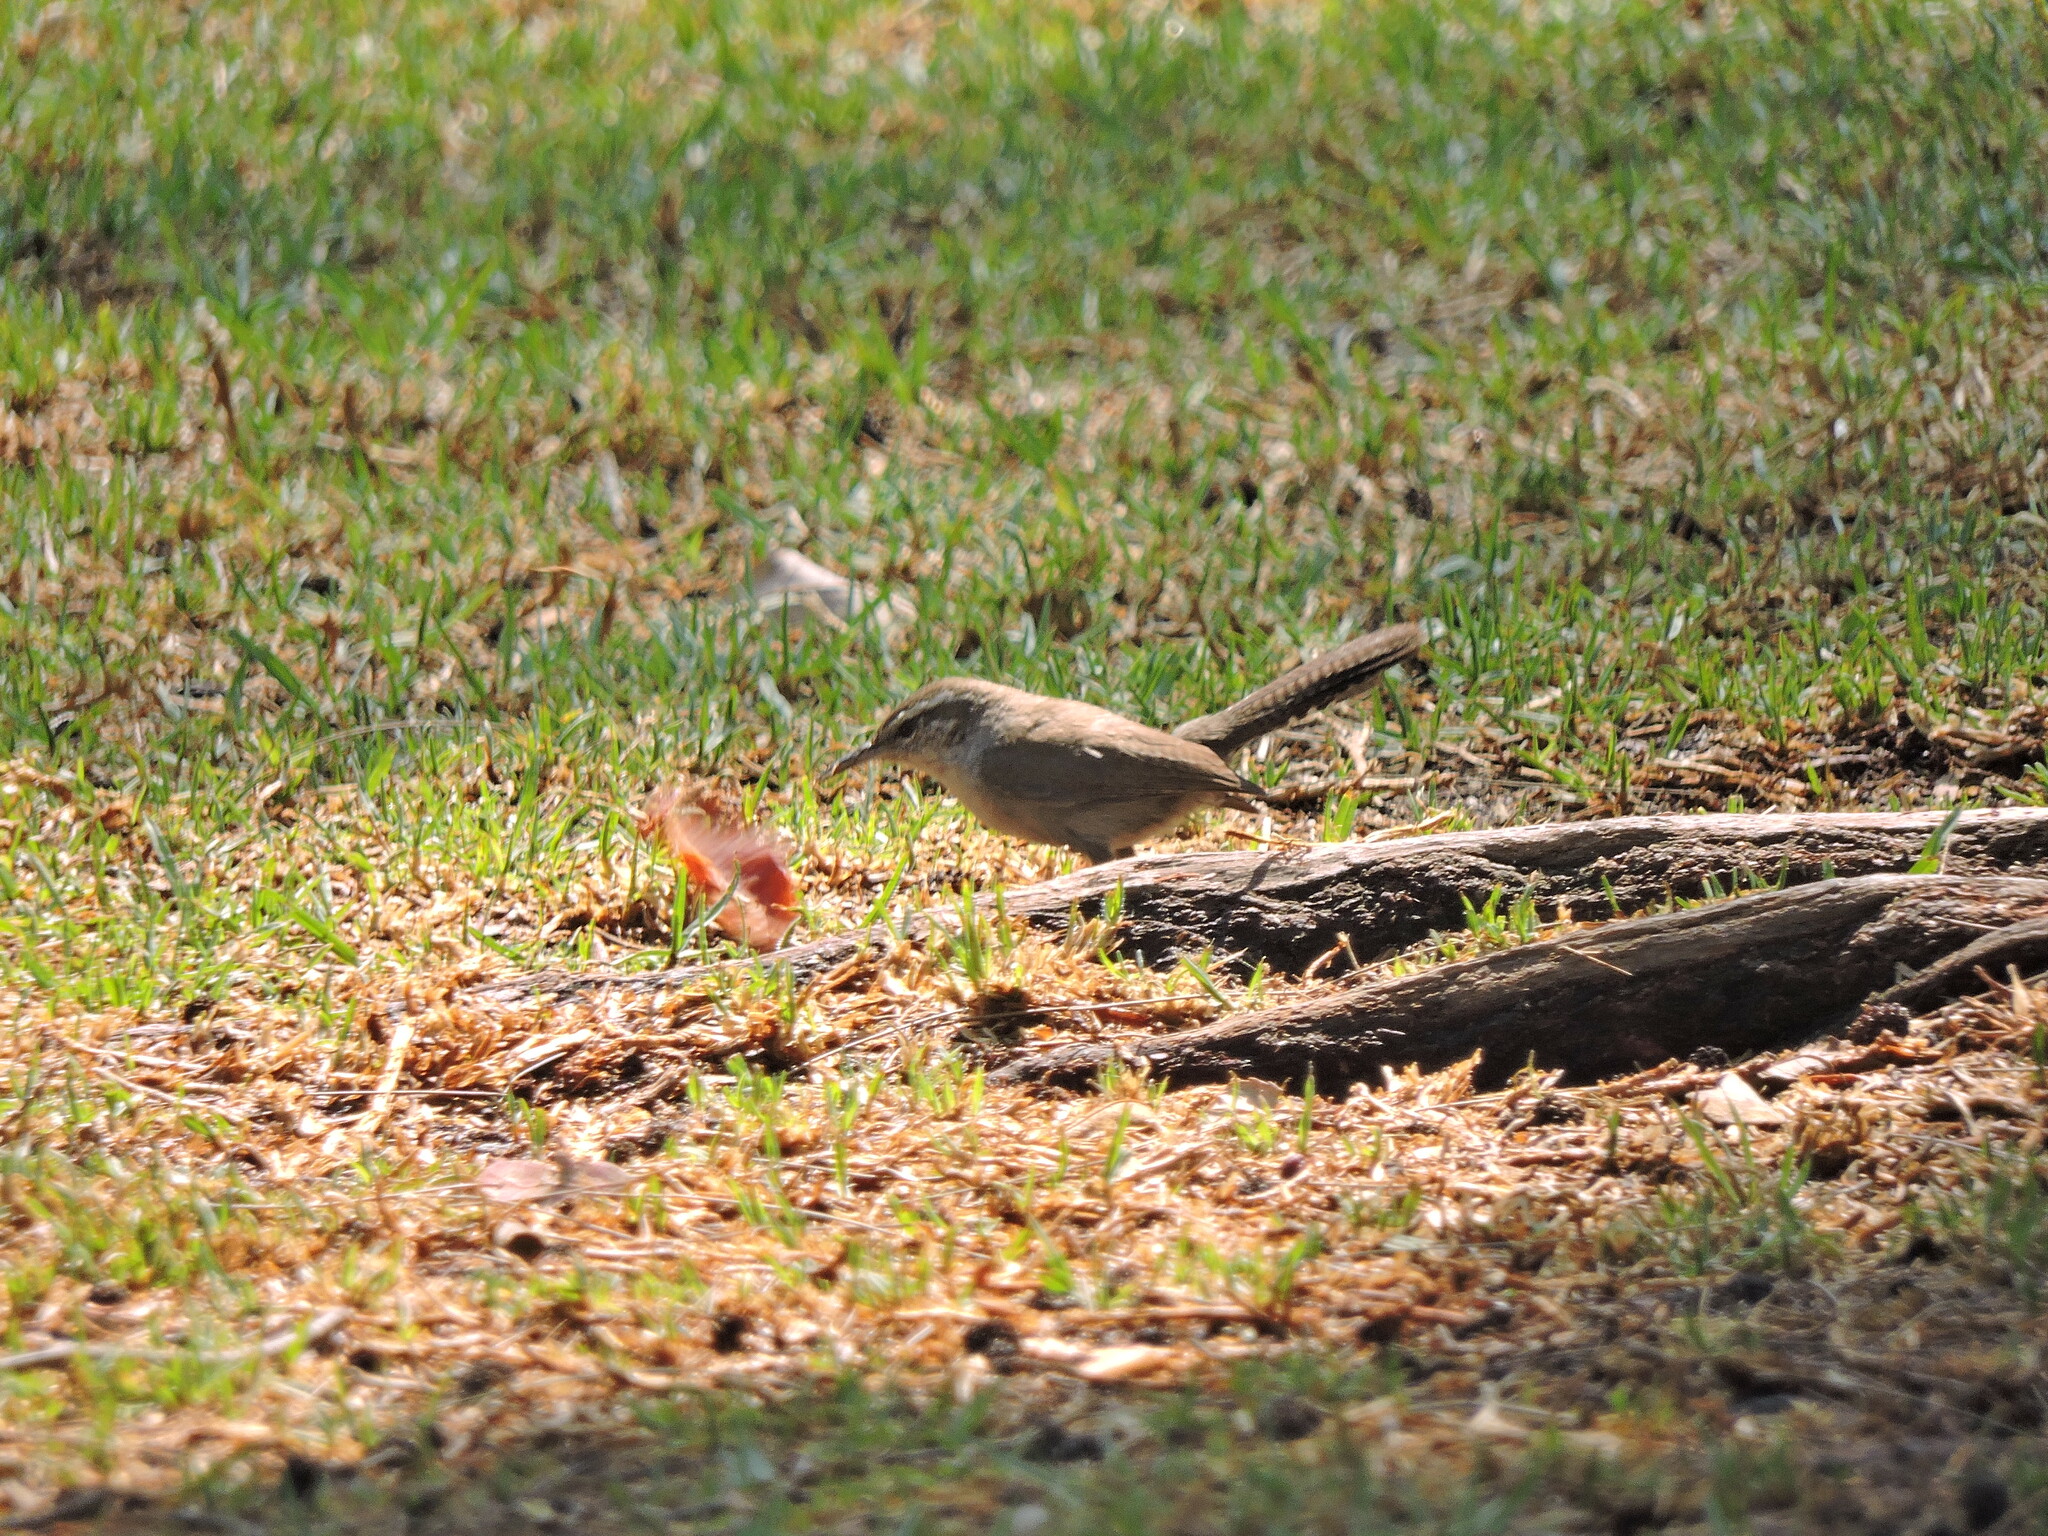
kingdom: Animalia
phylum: Chordata
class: Aves
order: Passeriformes
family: Troglodytidae
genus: Thryomanes
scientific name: Thryomanes bewickii
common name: Bewick's wren
